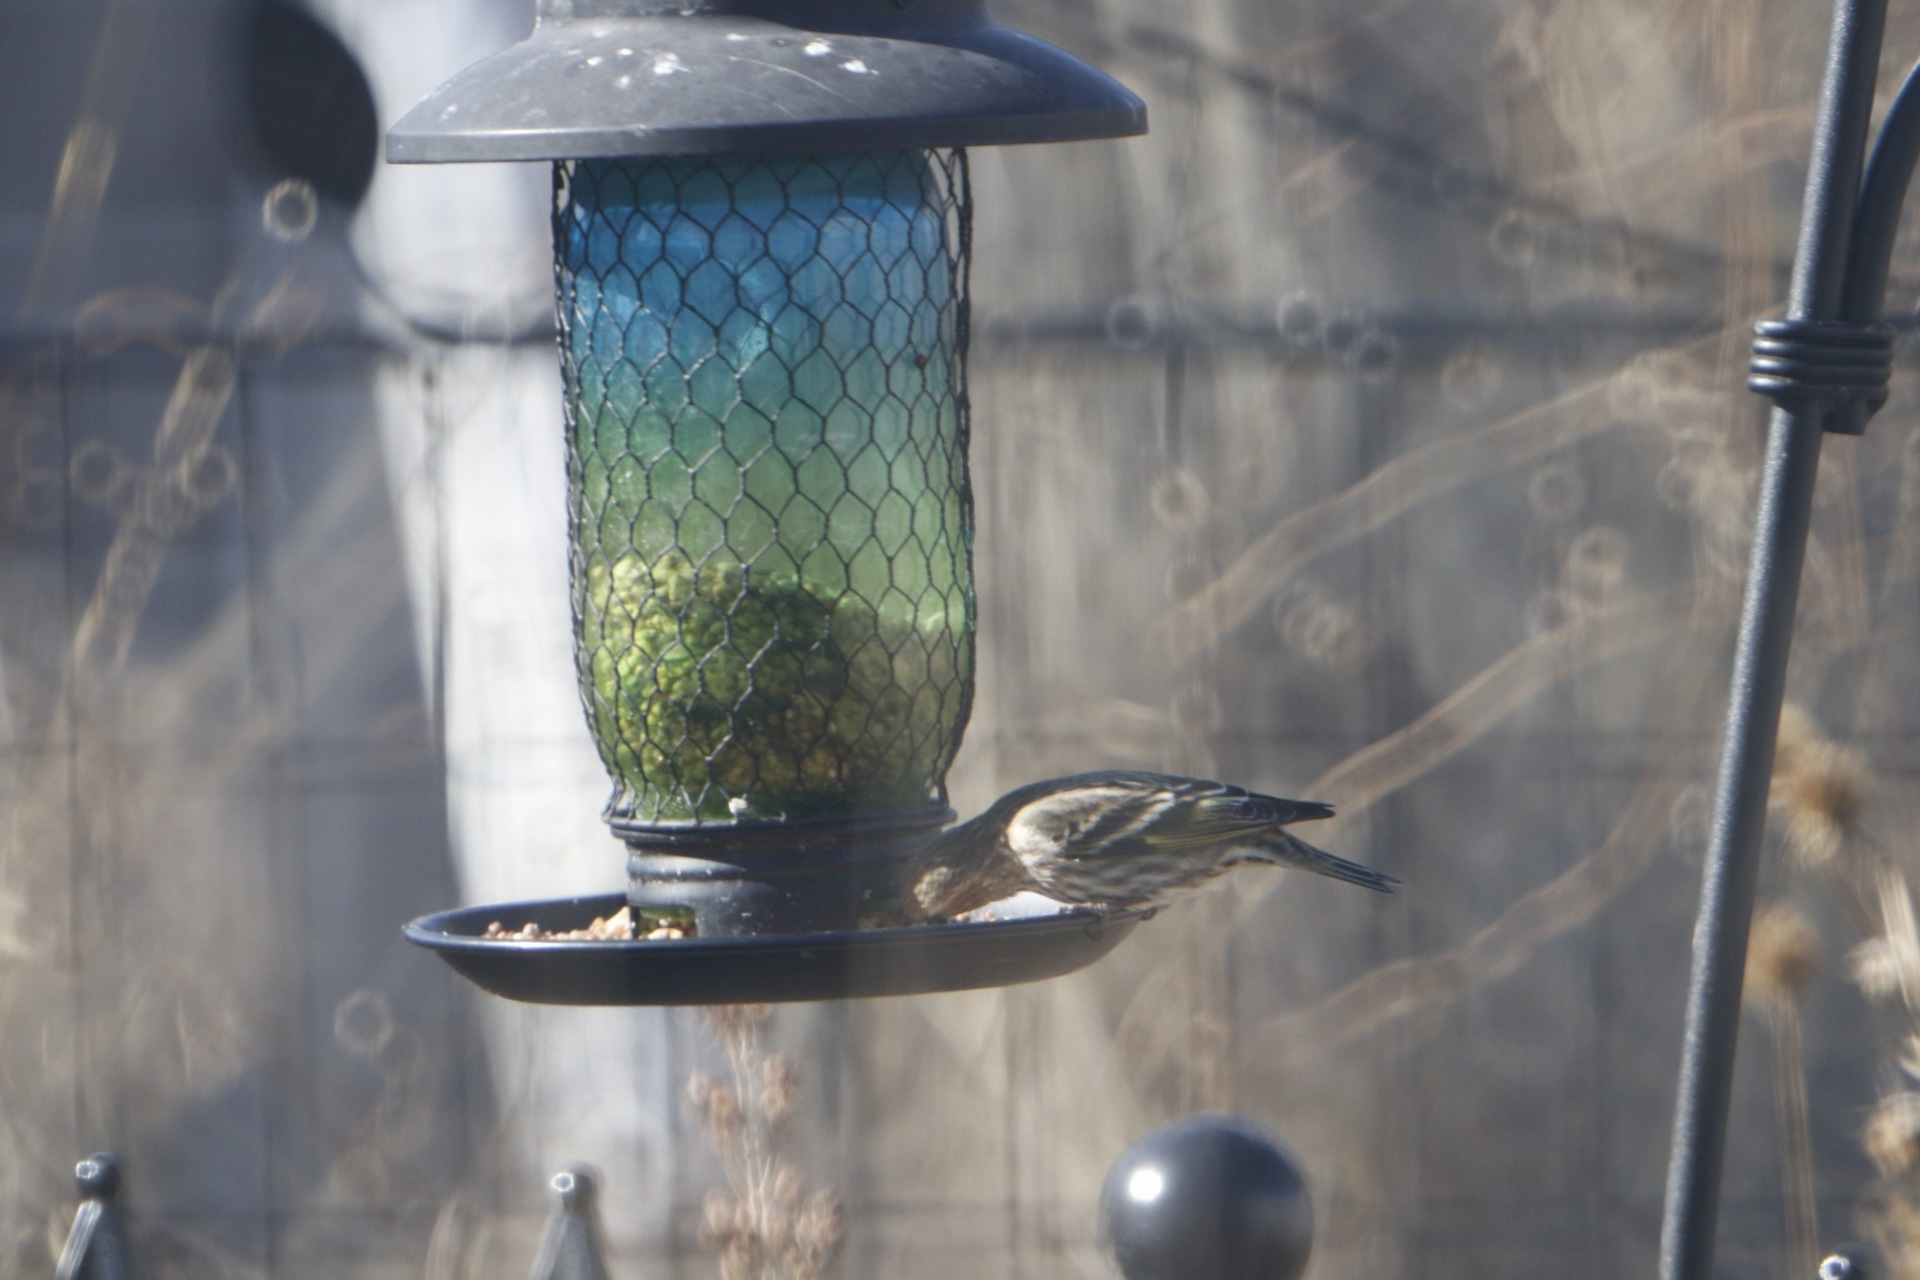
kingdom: Animalia
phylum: Chordata
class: Aves
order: Passeriformes
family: Fringillidae
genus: Spinus
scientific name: Spinus pinus
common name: Pine siskin
